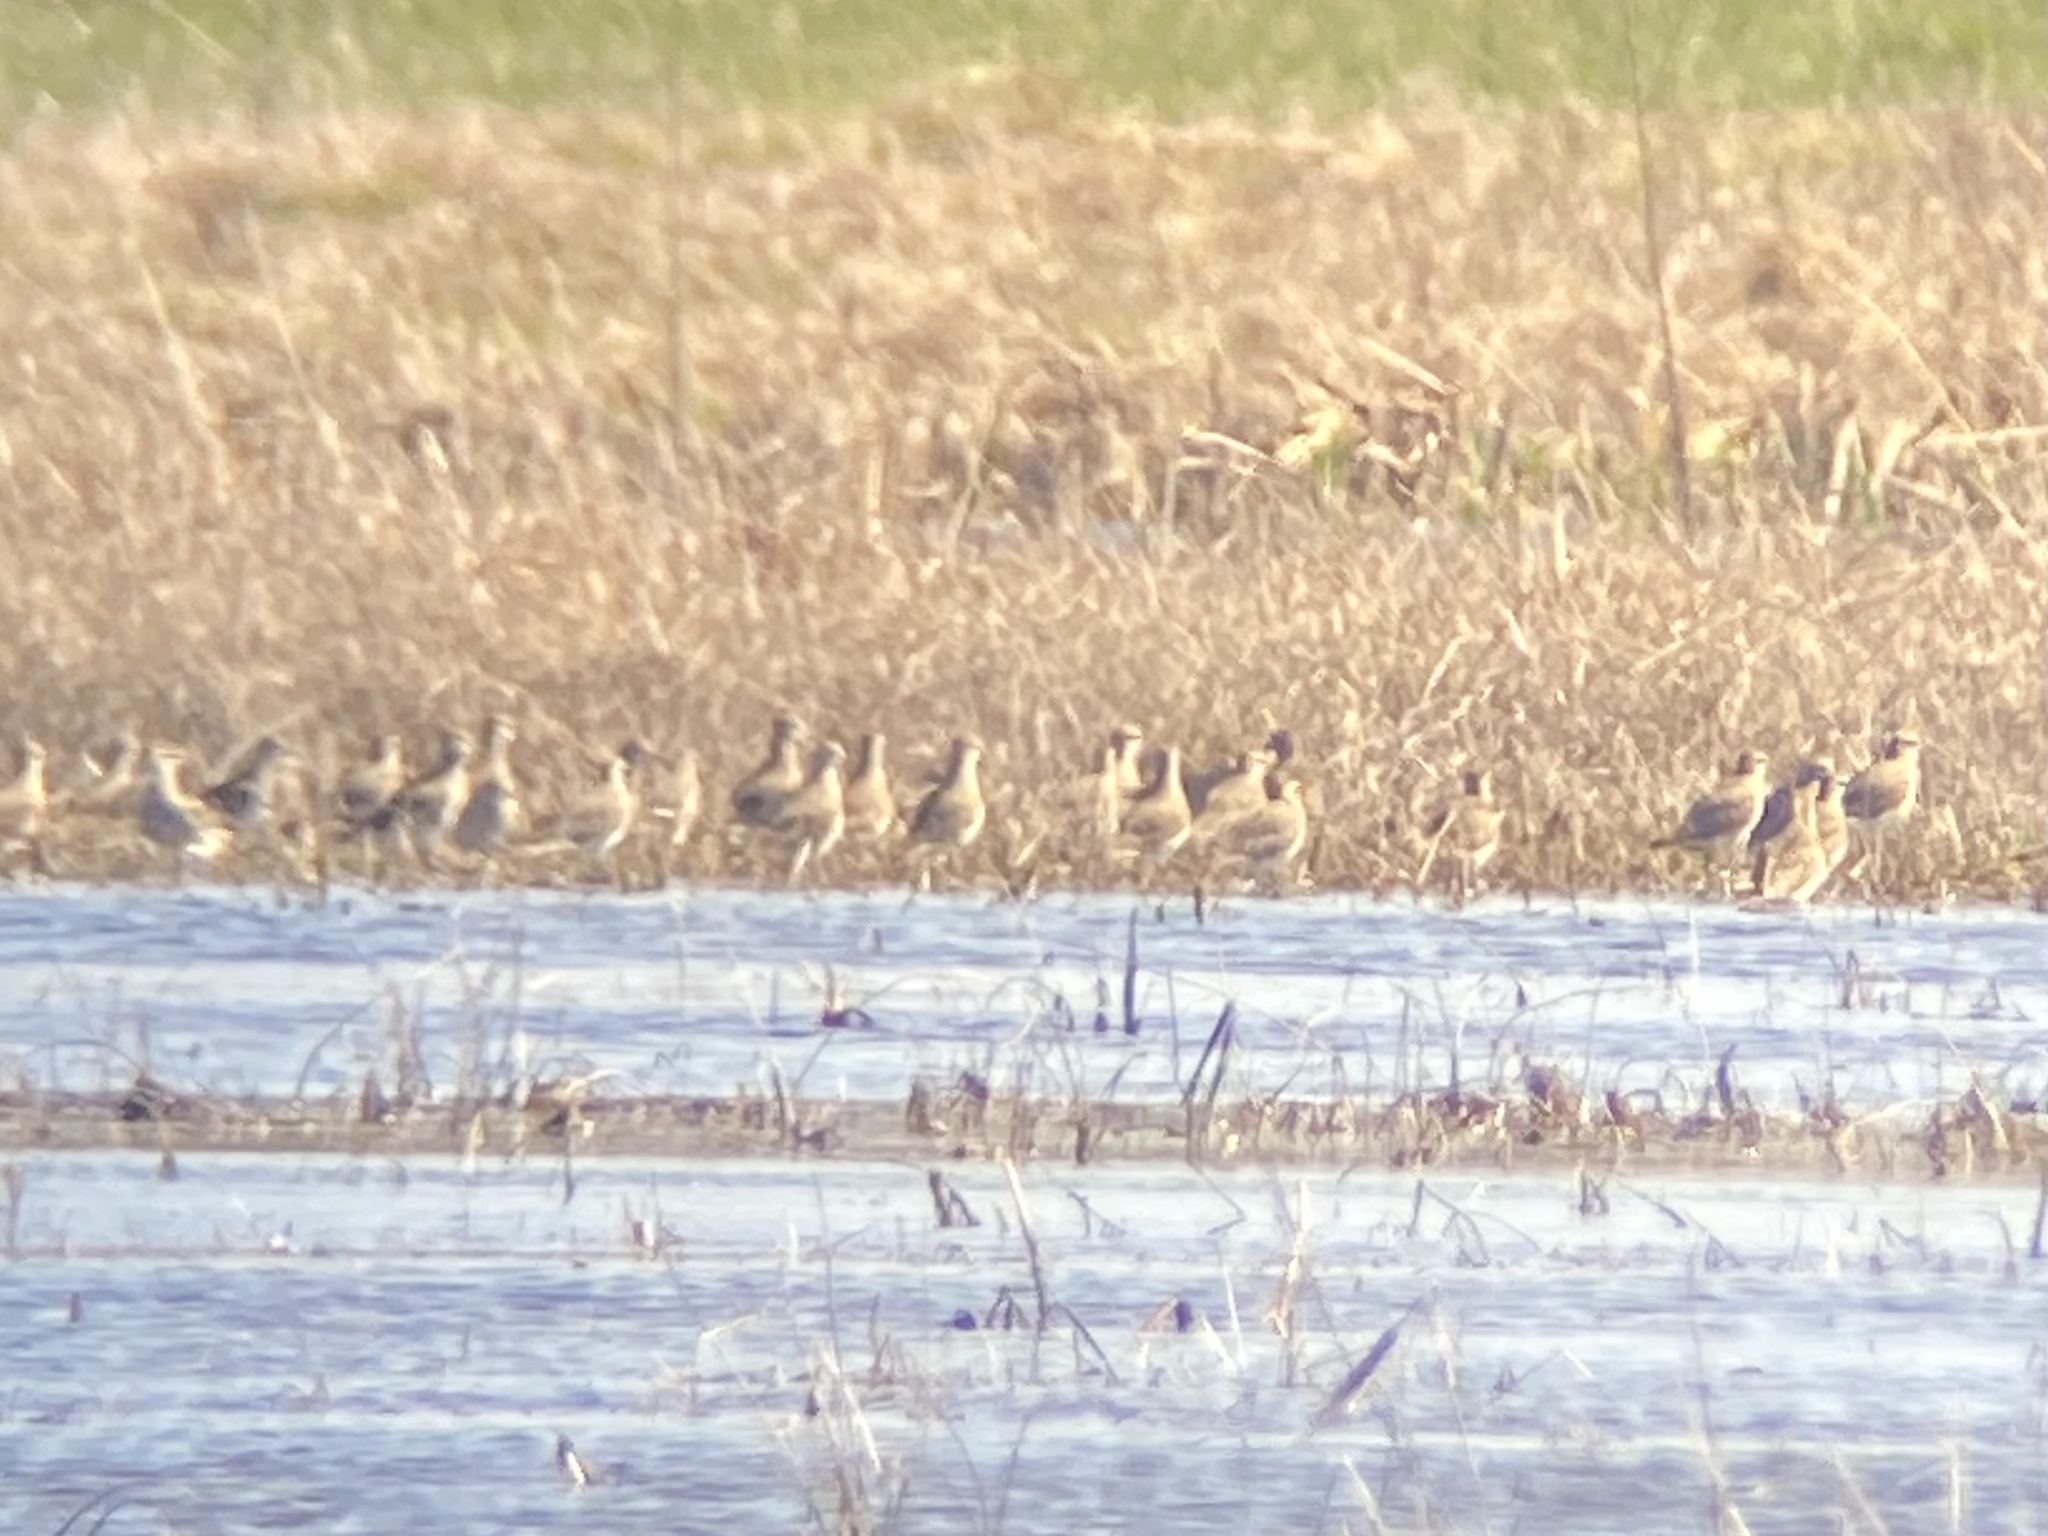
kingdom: Animalia
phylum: Chordata
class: Aves
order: Charadriiformes
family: Charadriidae
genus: Pluvialis
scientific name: Pluvialis dominica
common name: American golden plover
